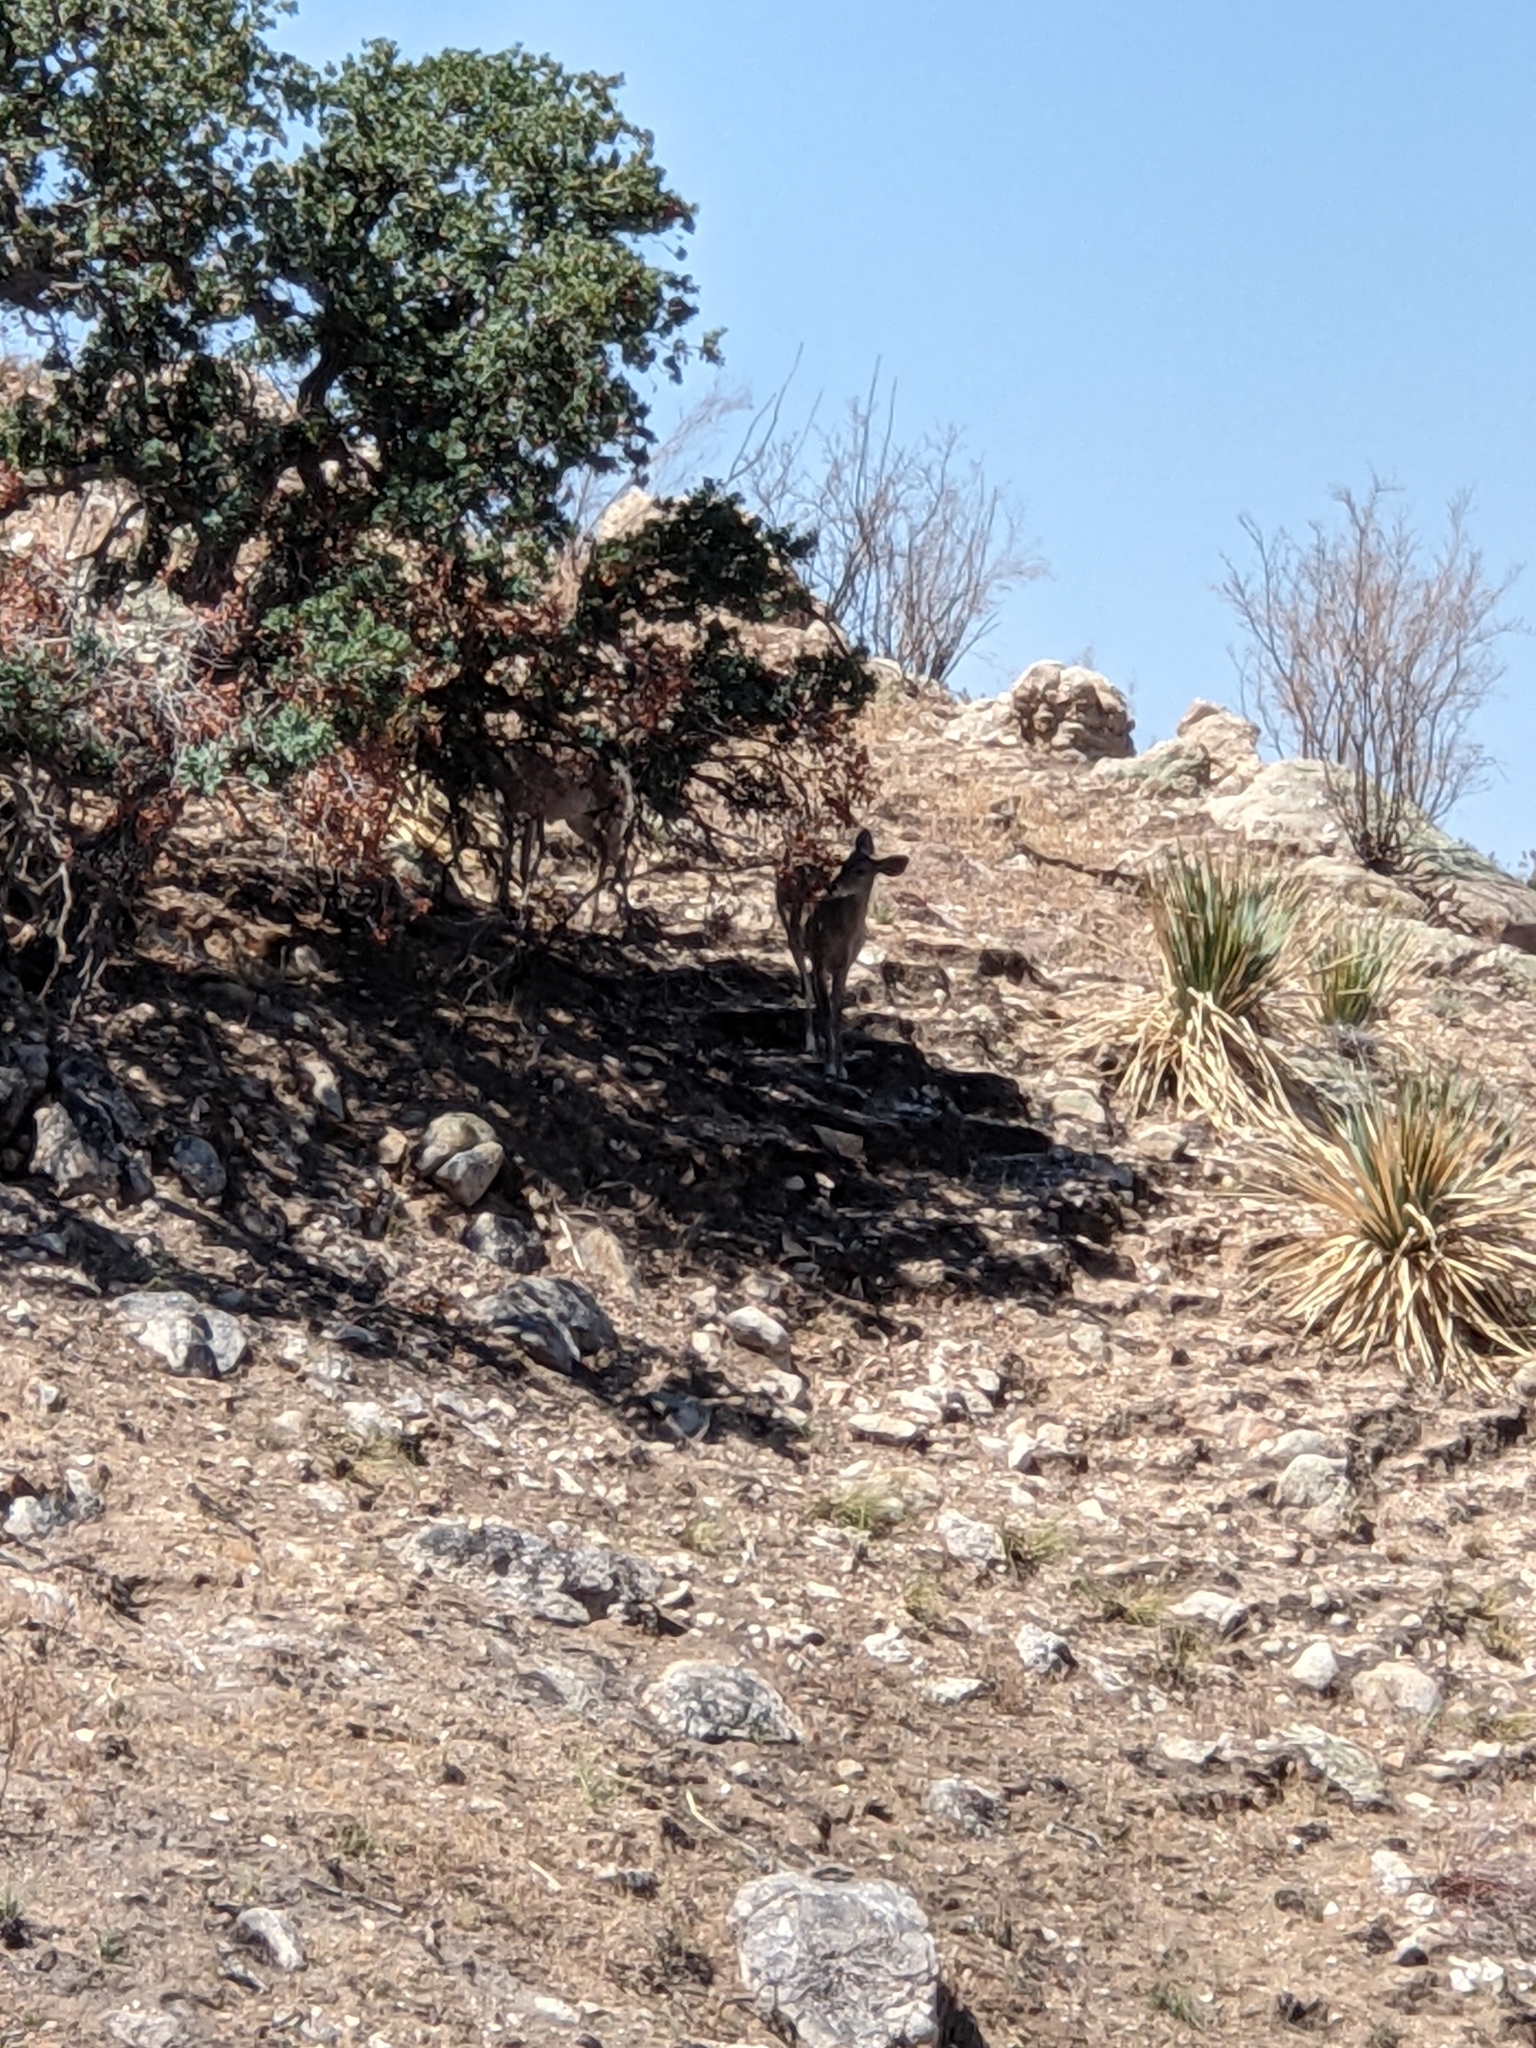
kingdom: Animalia
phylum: Chordata
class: Mammalia
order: Artiodactyla
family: Cervidae
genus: Odocoileus
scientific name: Odocoileus virginianus
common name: White-tailed deer
